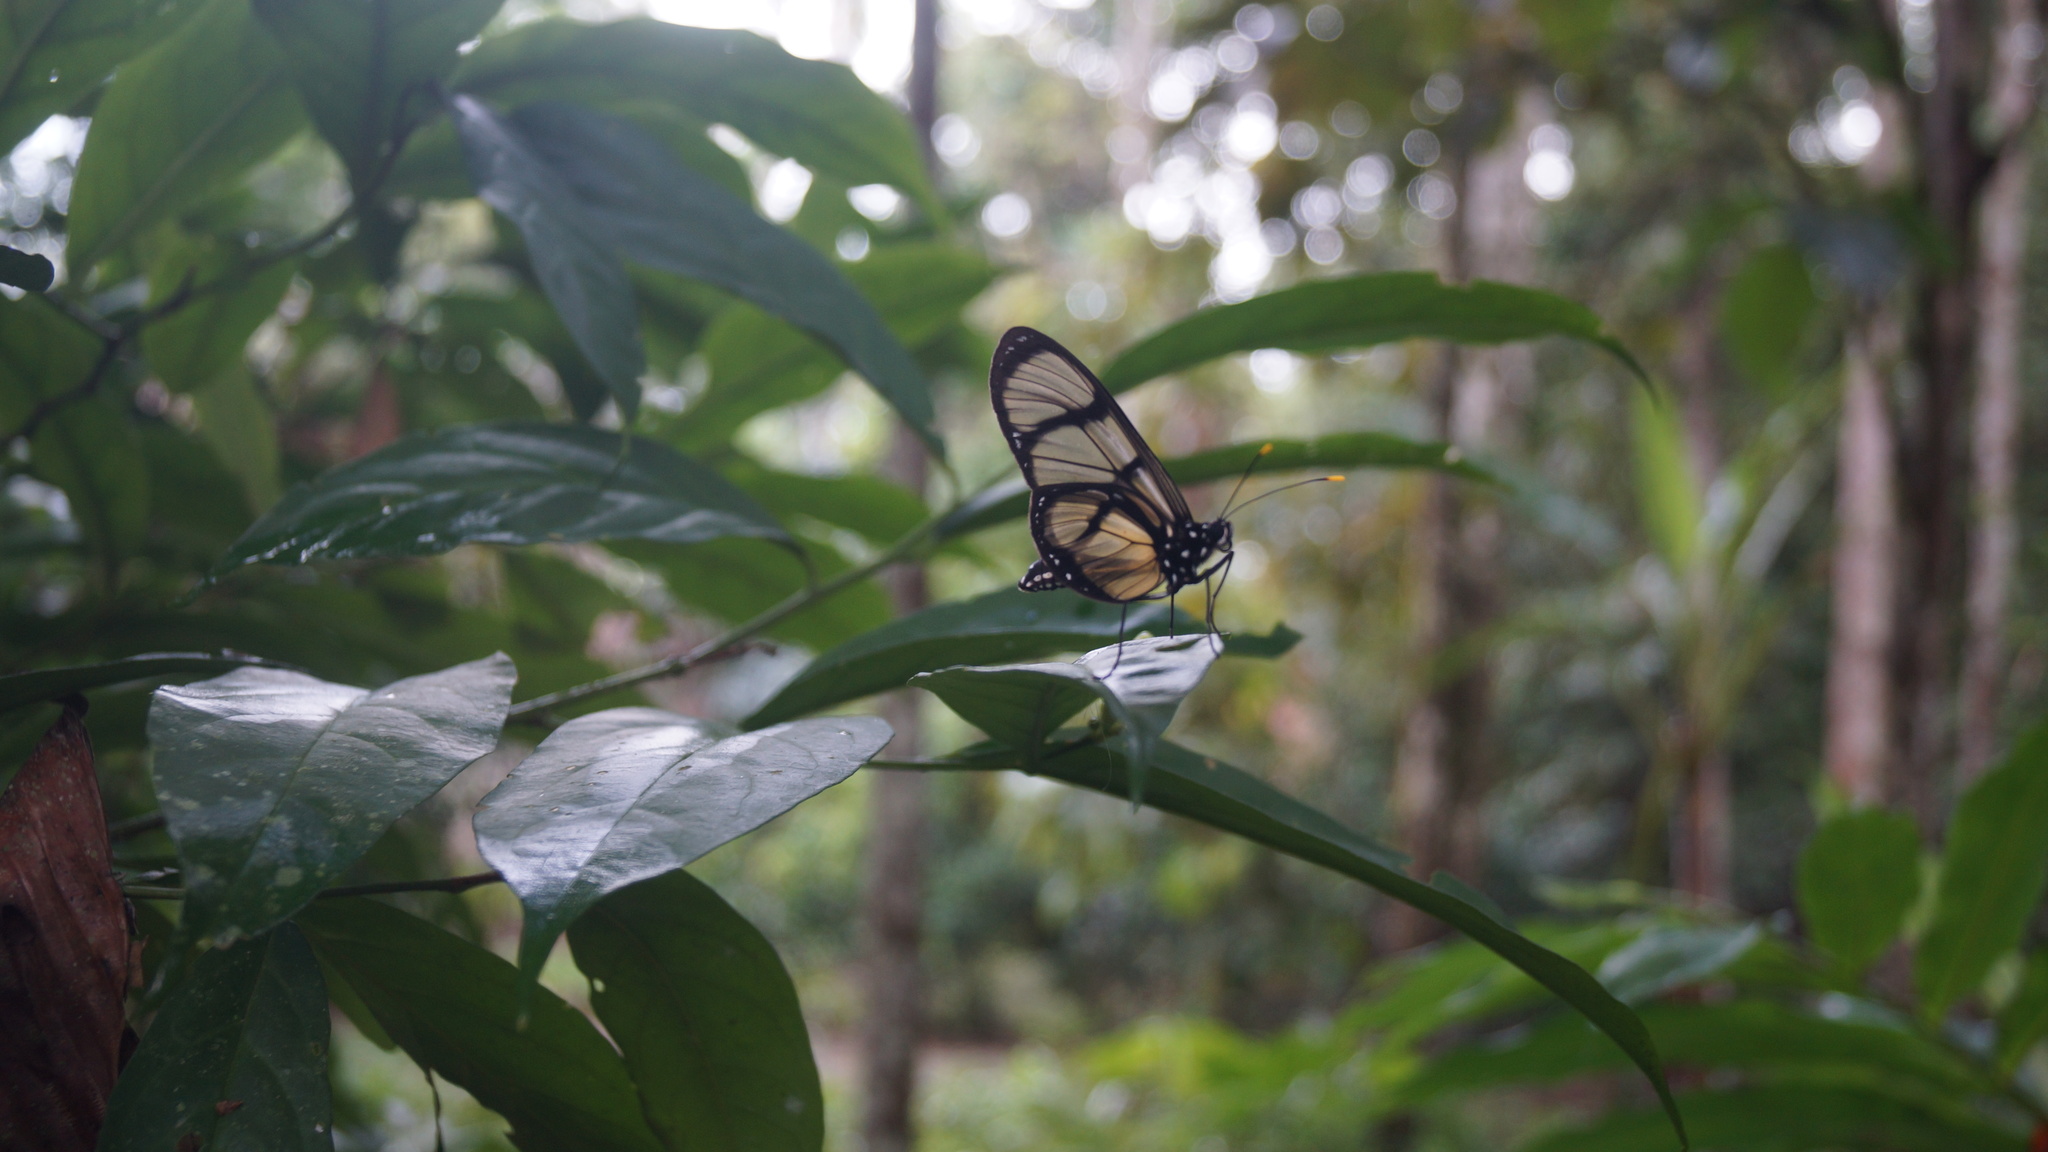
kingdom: Animalia
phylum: Arthropoda
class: Insecta
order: Lepidoptera
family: Nymphalidae
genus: Methona
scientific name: Methona confusa
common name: Confusa tigerwing
